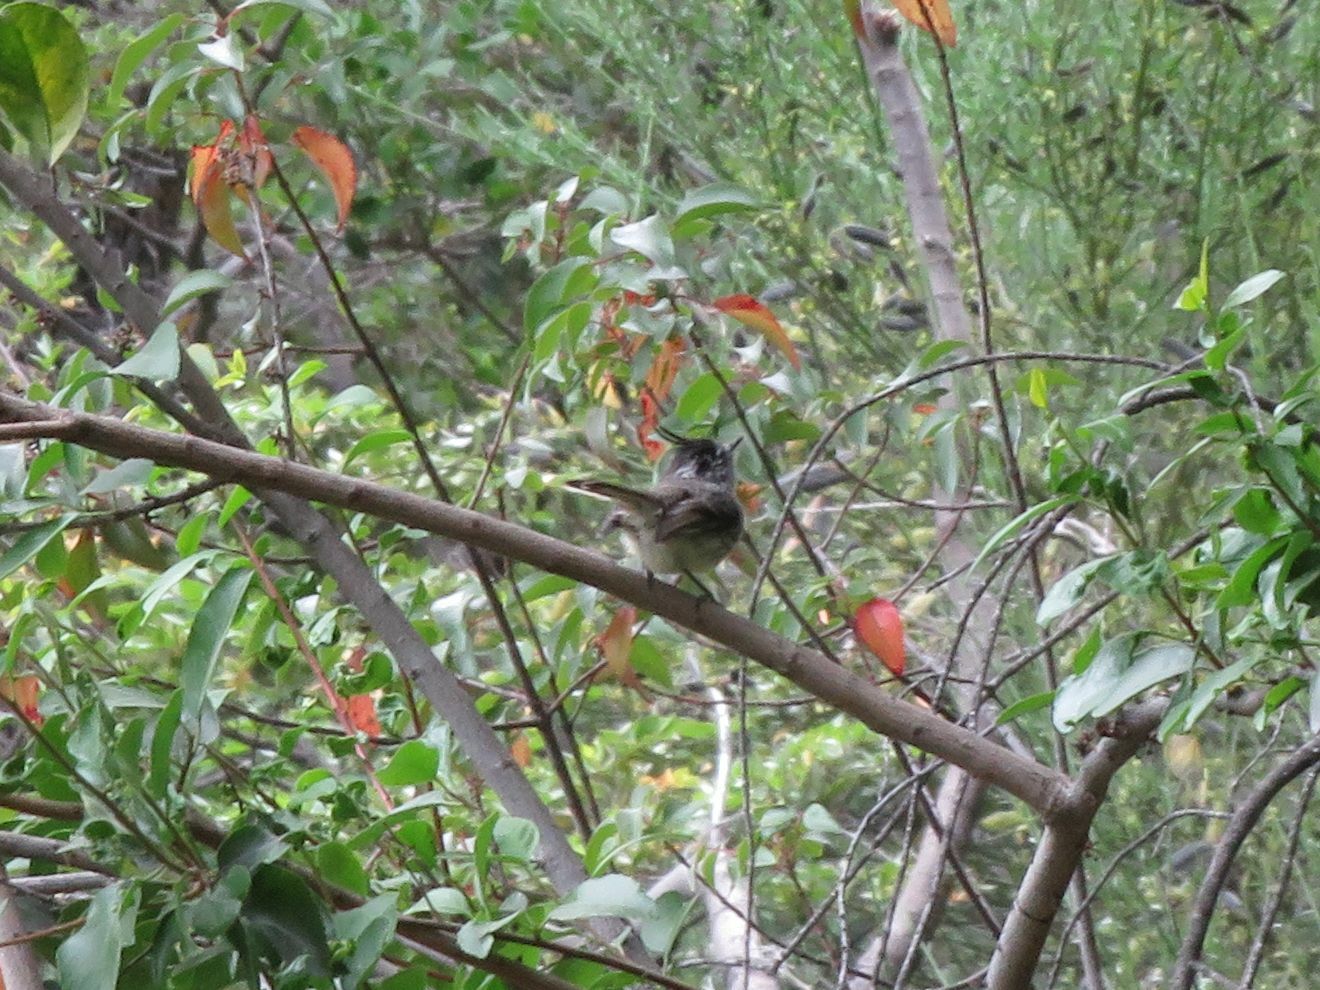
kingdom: Animalia
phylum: Chordata
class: Aves
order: Passeriformes
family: Tyrannidae
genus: Anairetes
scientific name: Anairetes parulus
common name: Tufted tit-tyrant
